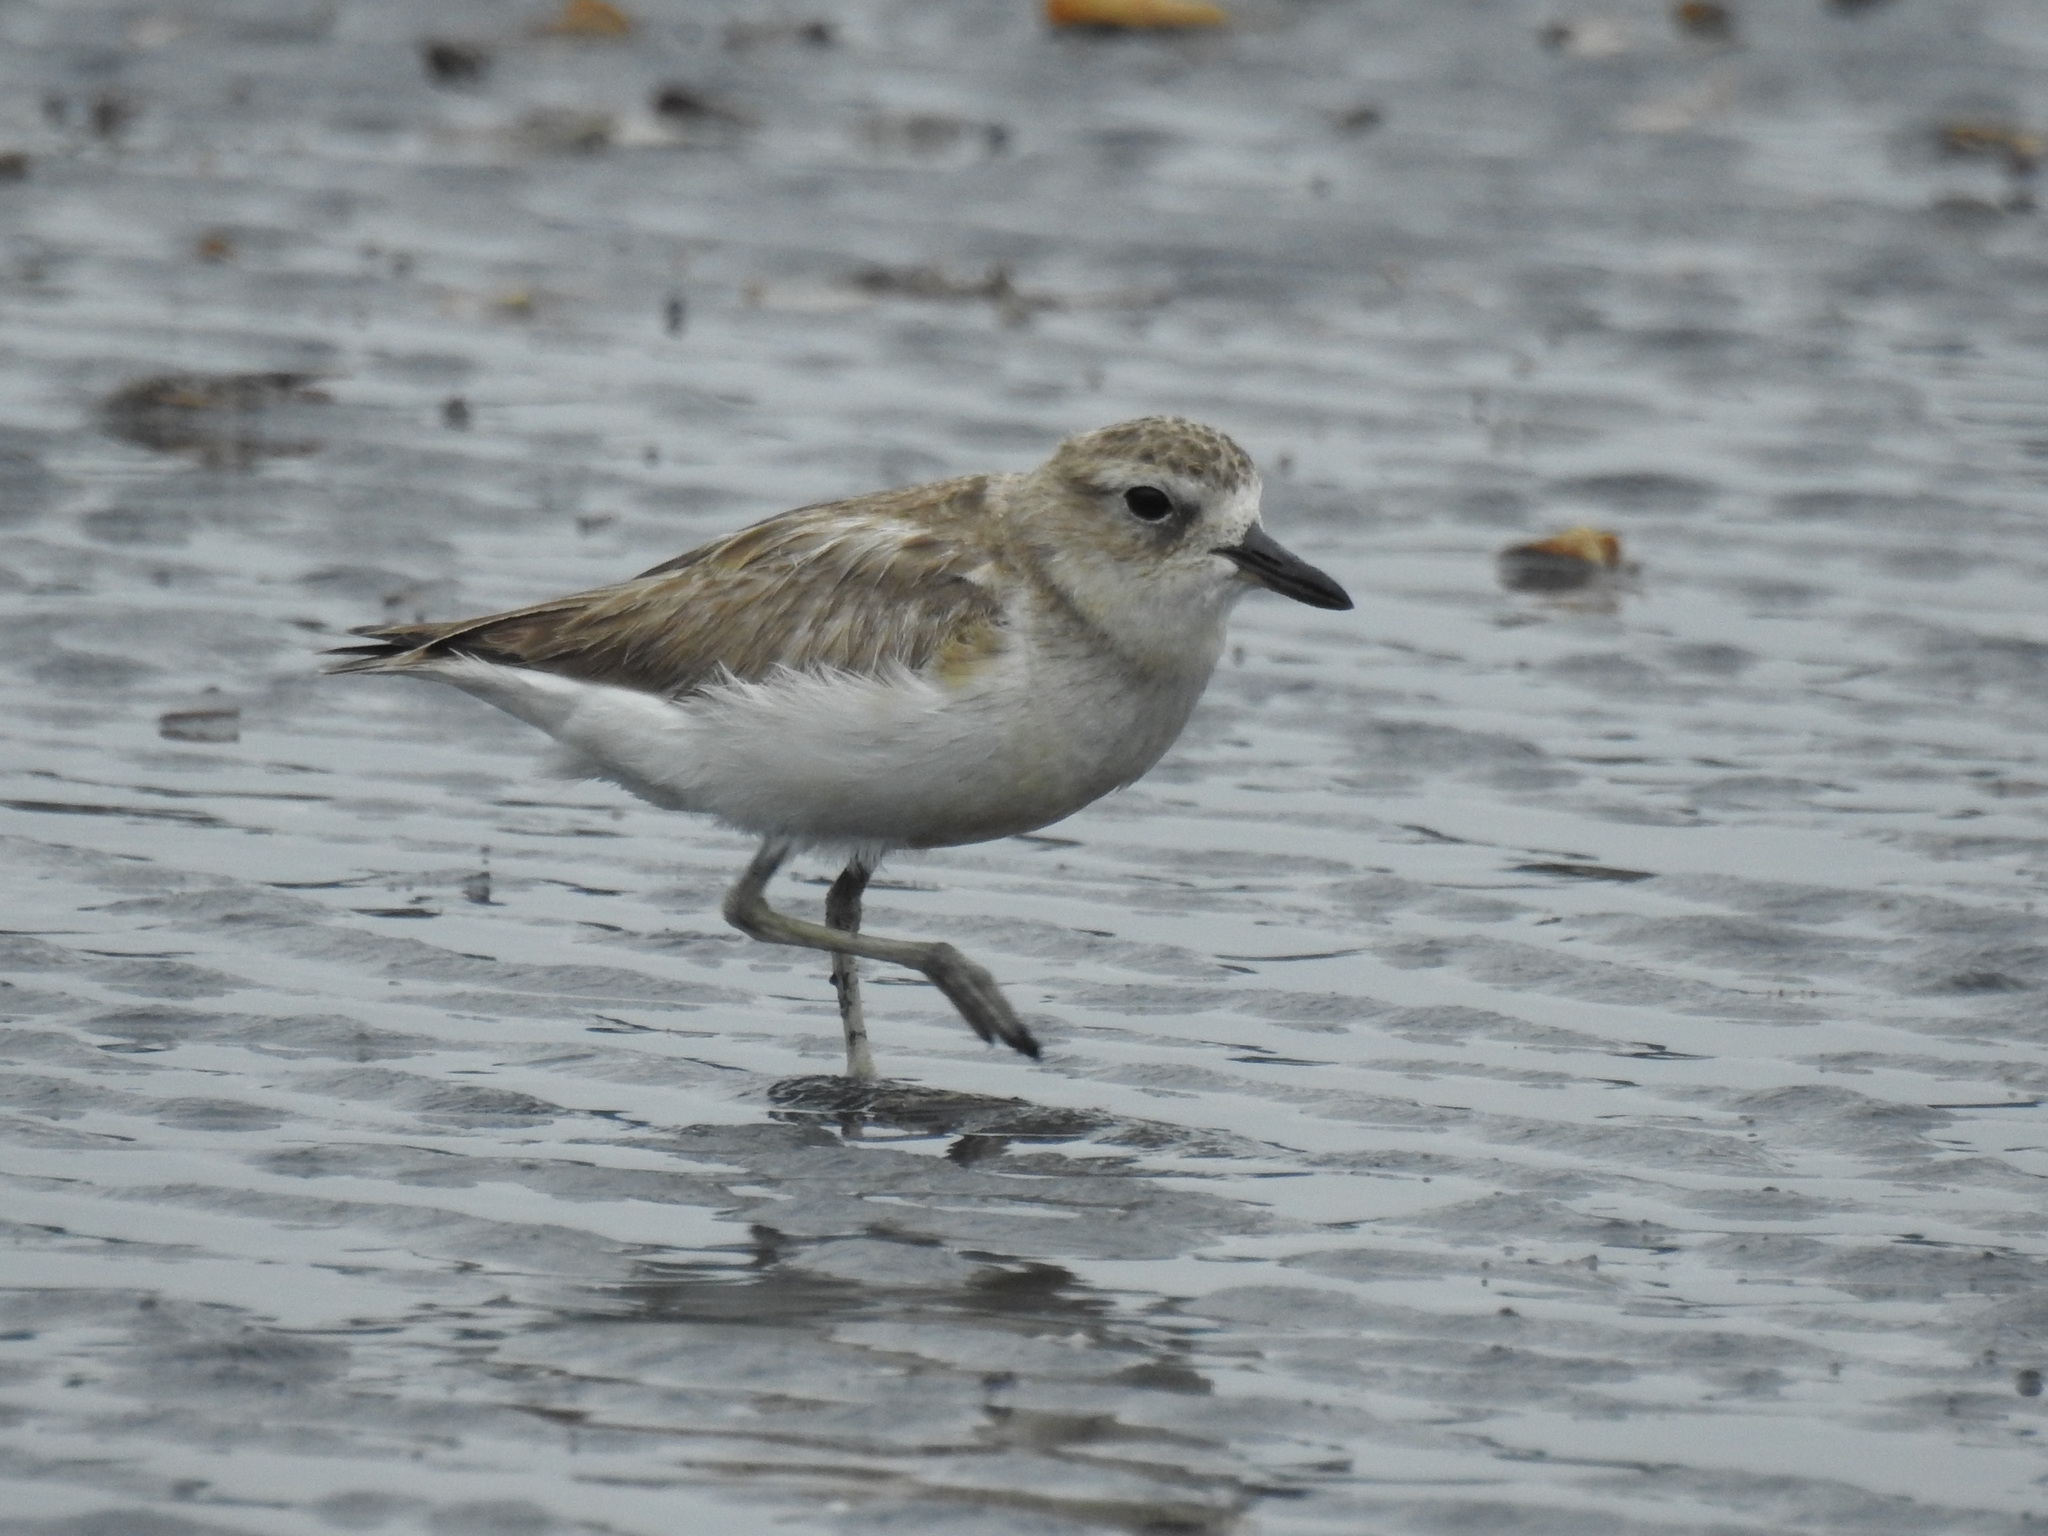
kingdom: Animalia
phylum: Chordata
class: Aves
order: Charadriiformes
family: Charadriidae
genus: Anarhynchus
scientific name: Anarhynchus
